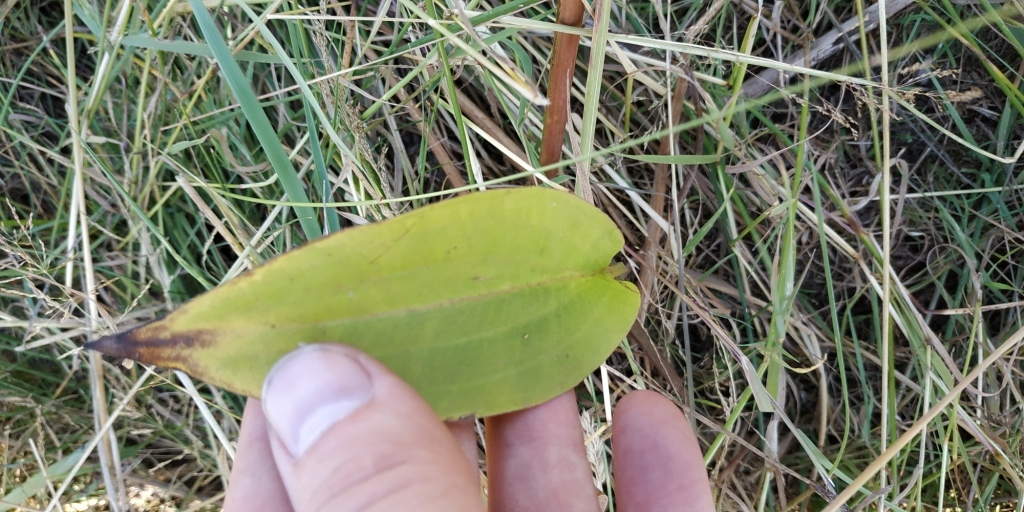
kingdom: Plantae
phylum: Tracheophyta
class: Liliopsida
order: Alismatales
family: Alismataceae
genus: Alisma
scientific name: Alisma plantago-aquatica
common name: Water-plantain
